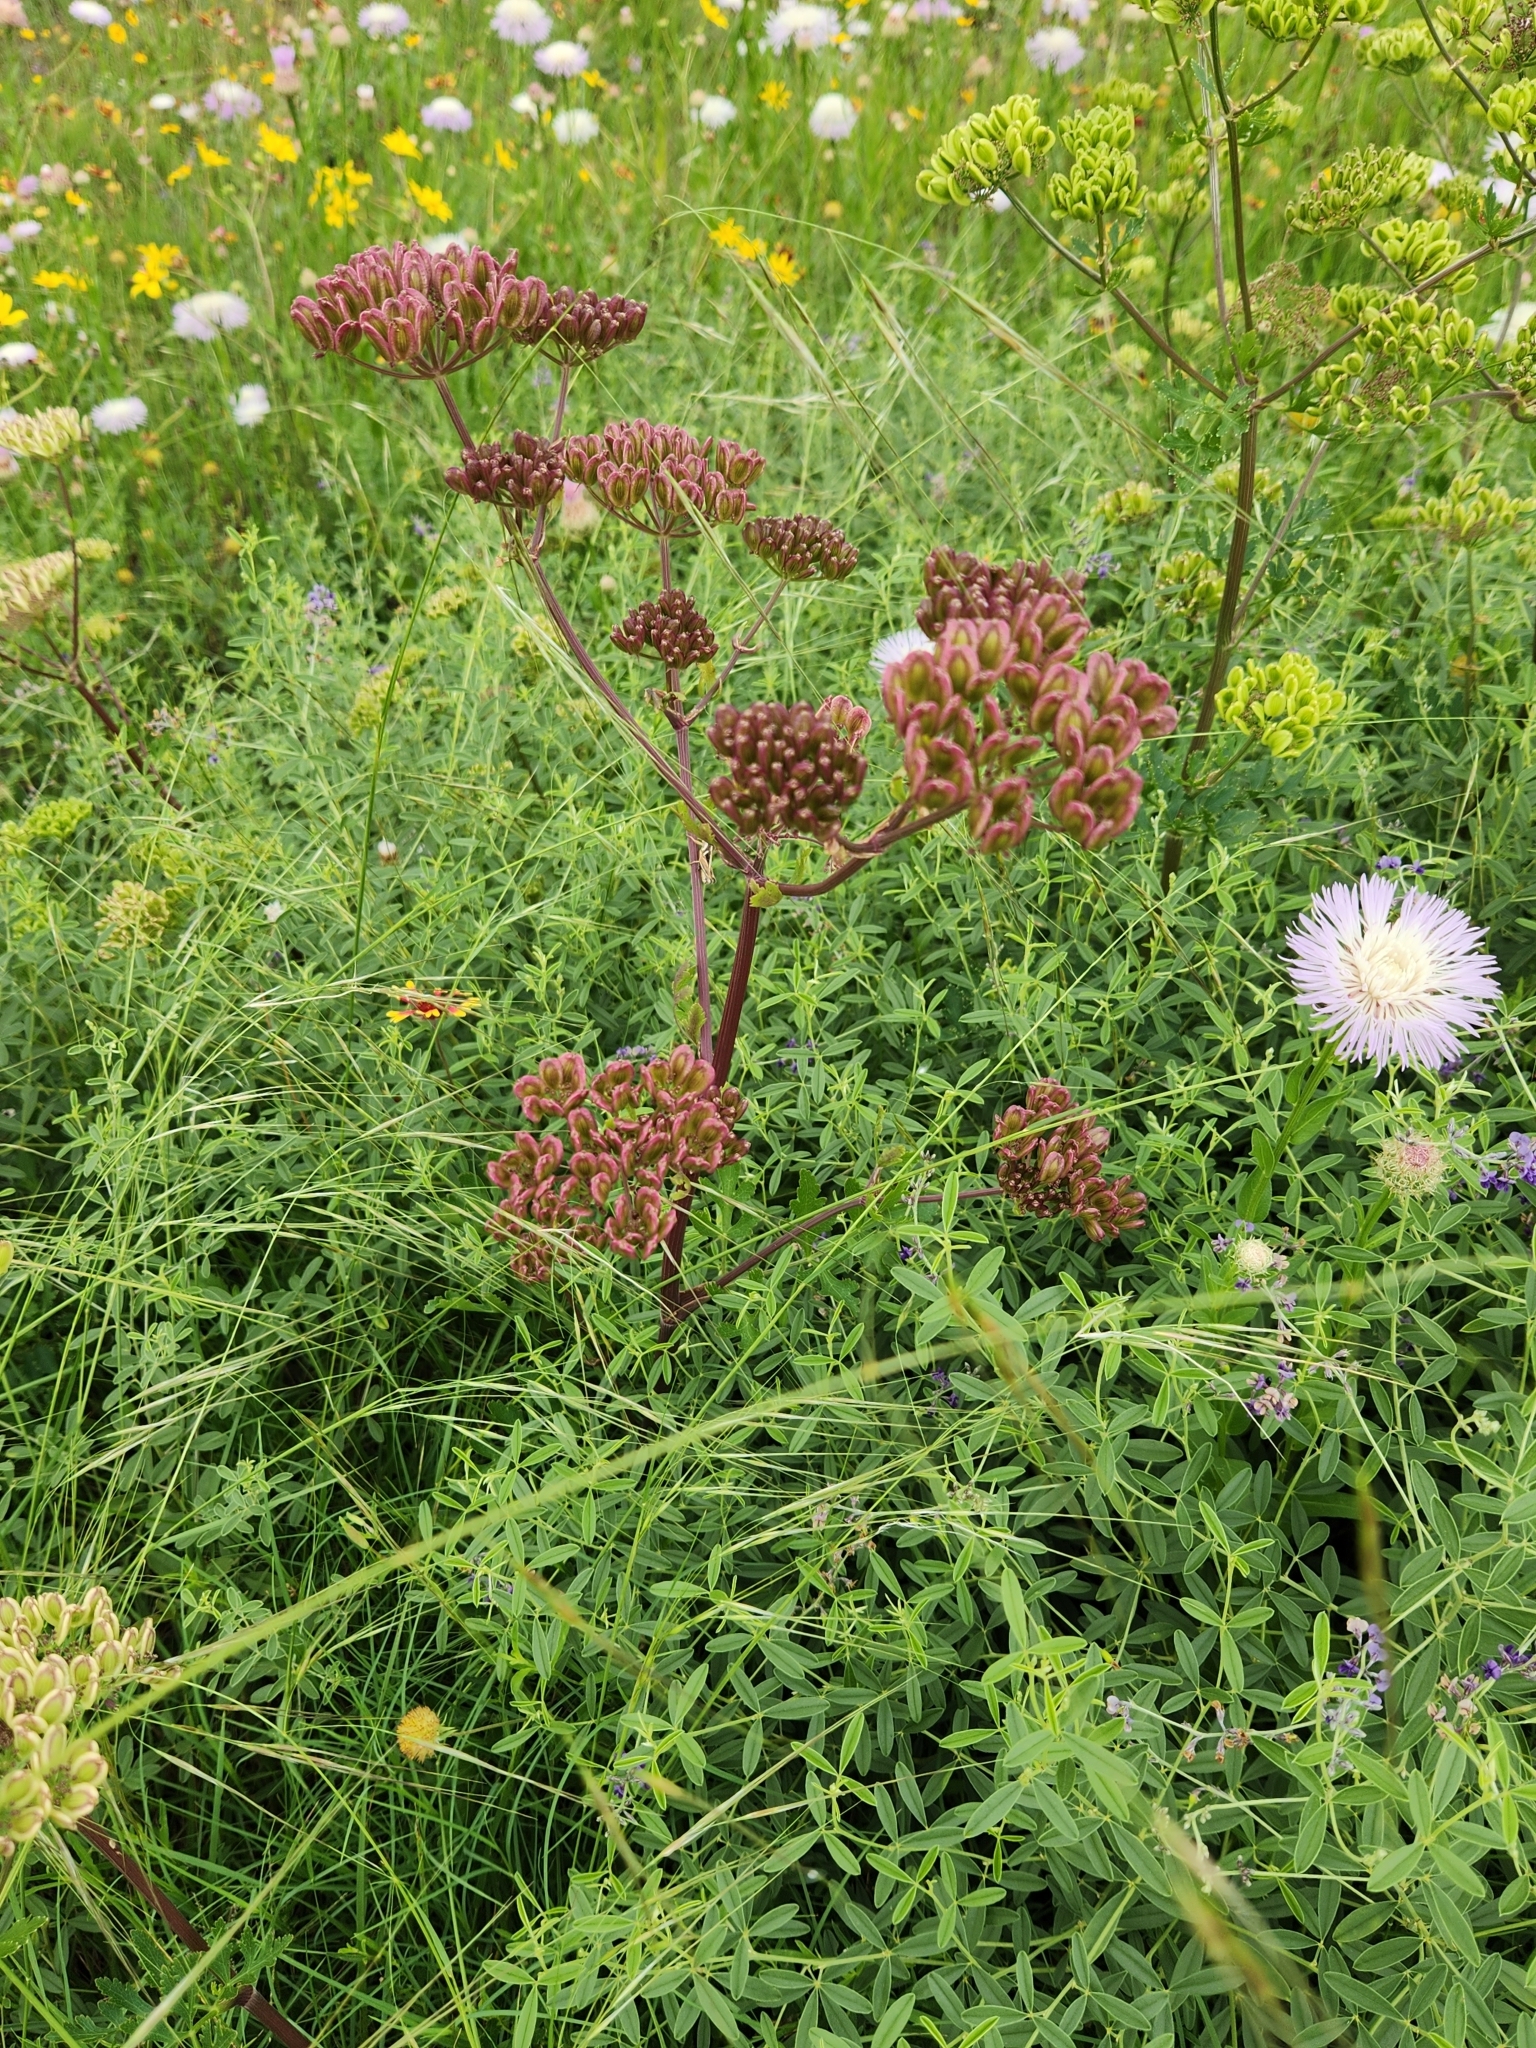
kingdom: Plantae
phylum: Tracheophyta
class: Magnoliopsida
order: Apiales
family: Apiaceae
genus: Polytaenia
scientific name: Polytaenia texana
